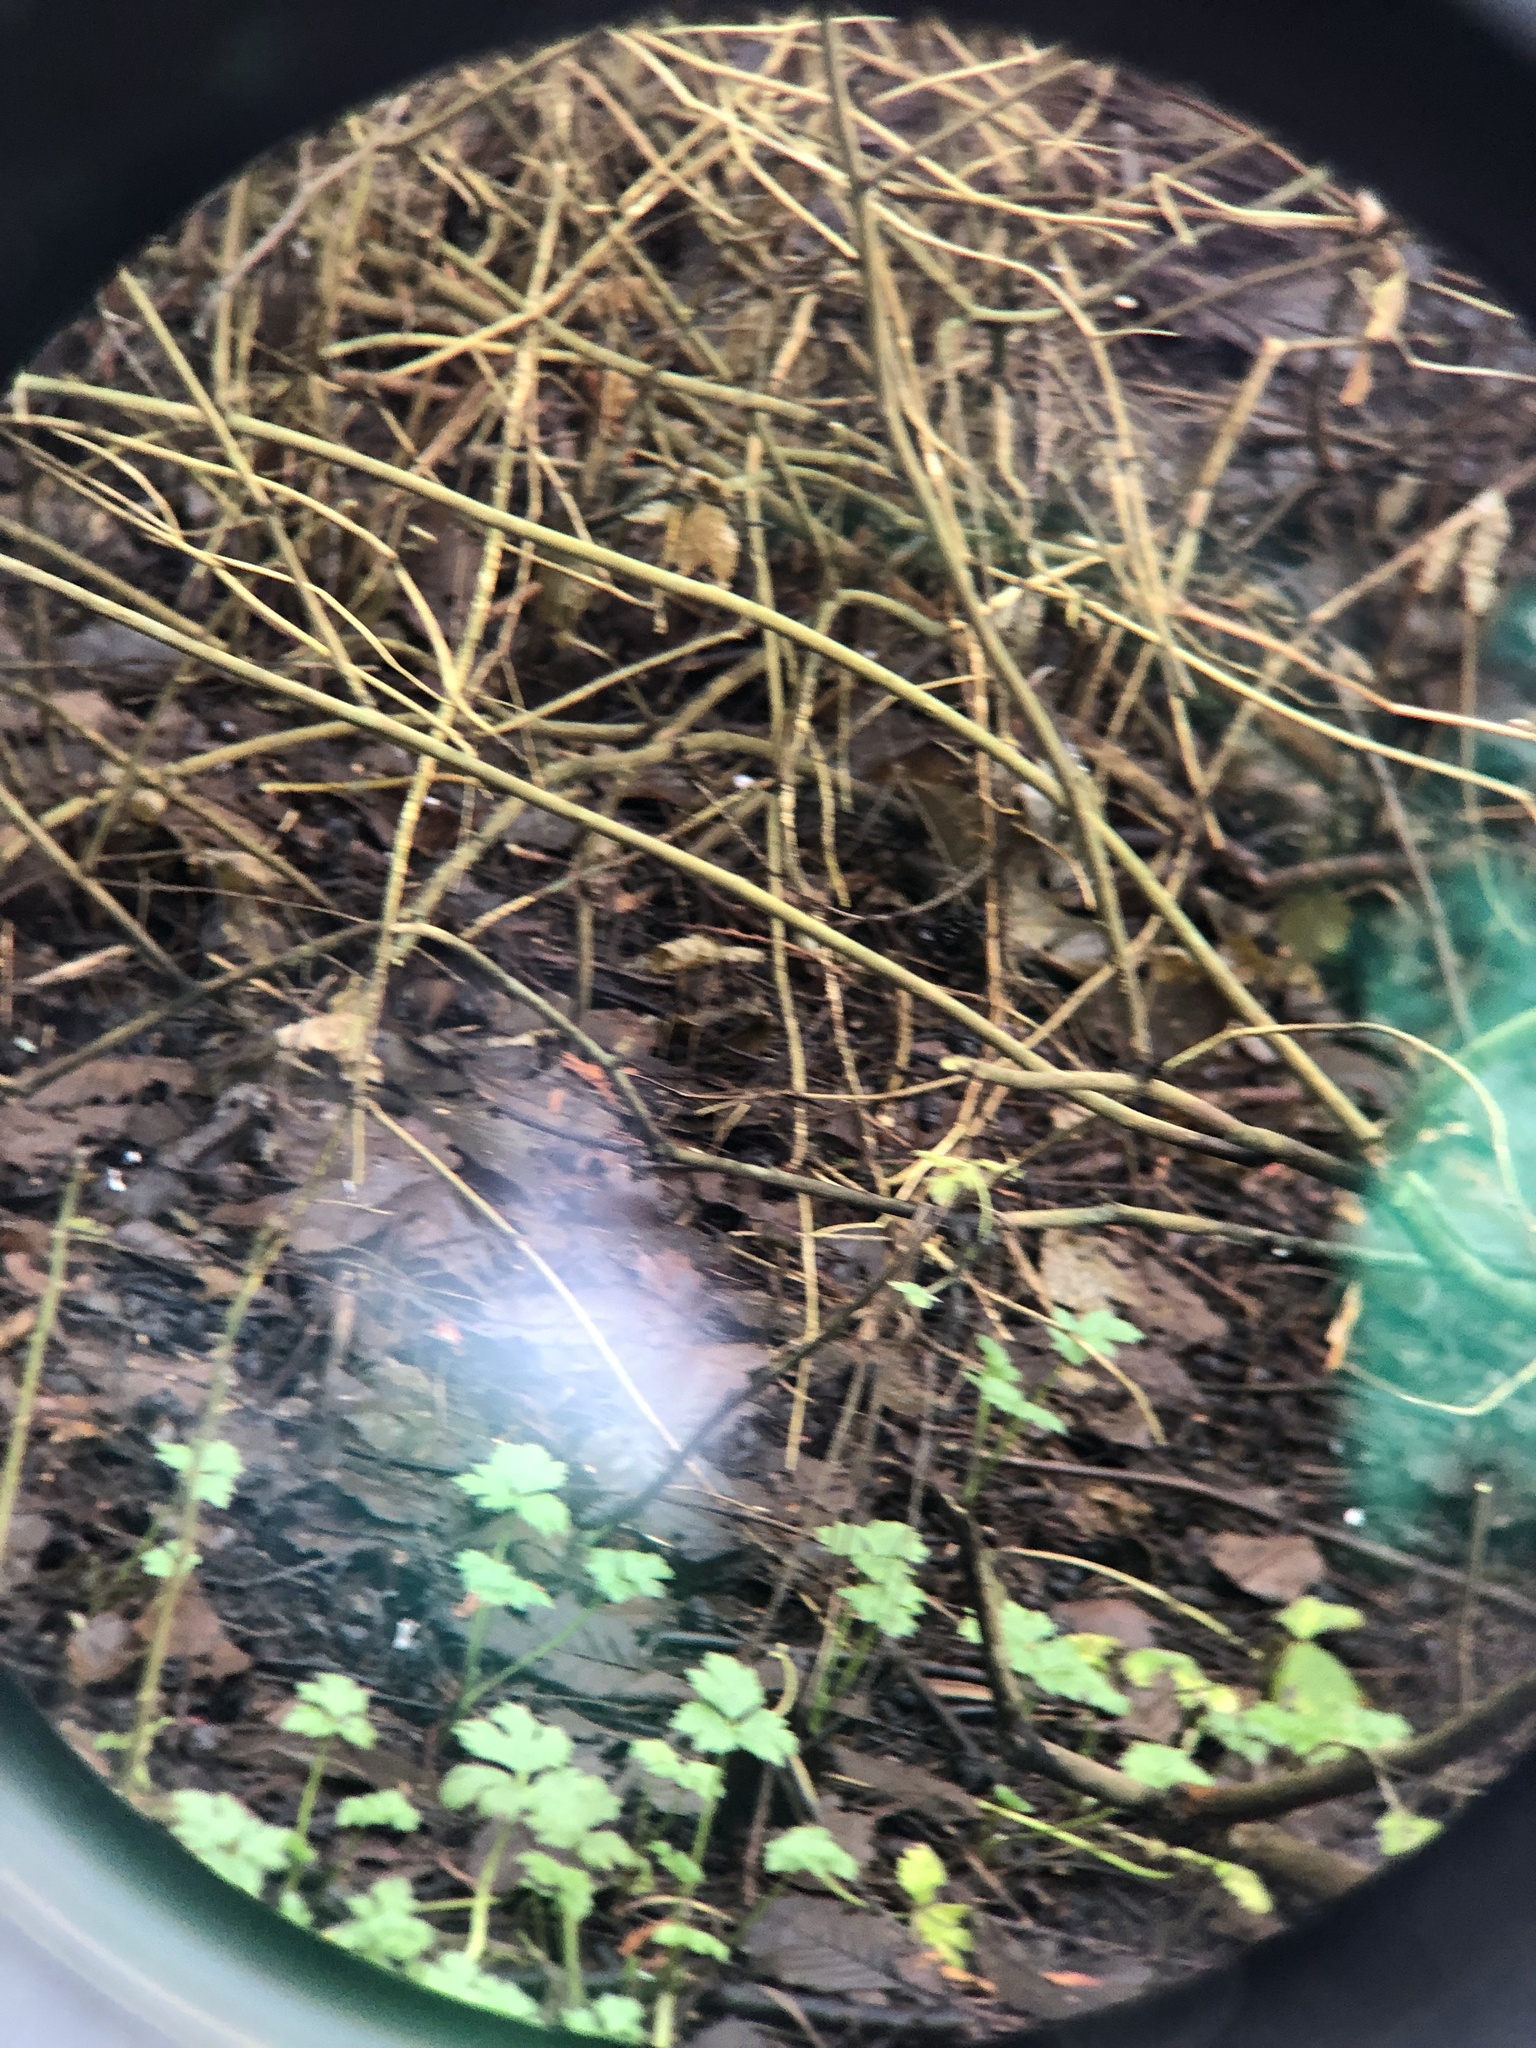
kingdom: Animalia
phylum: Chordata
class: Aves
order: Passeriformes
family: Regulidae
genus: Regulus
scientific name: Regulus satrapa
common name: Golden-crowned kinglet
